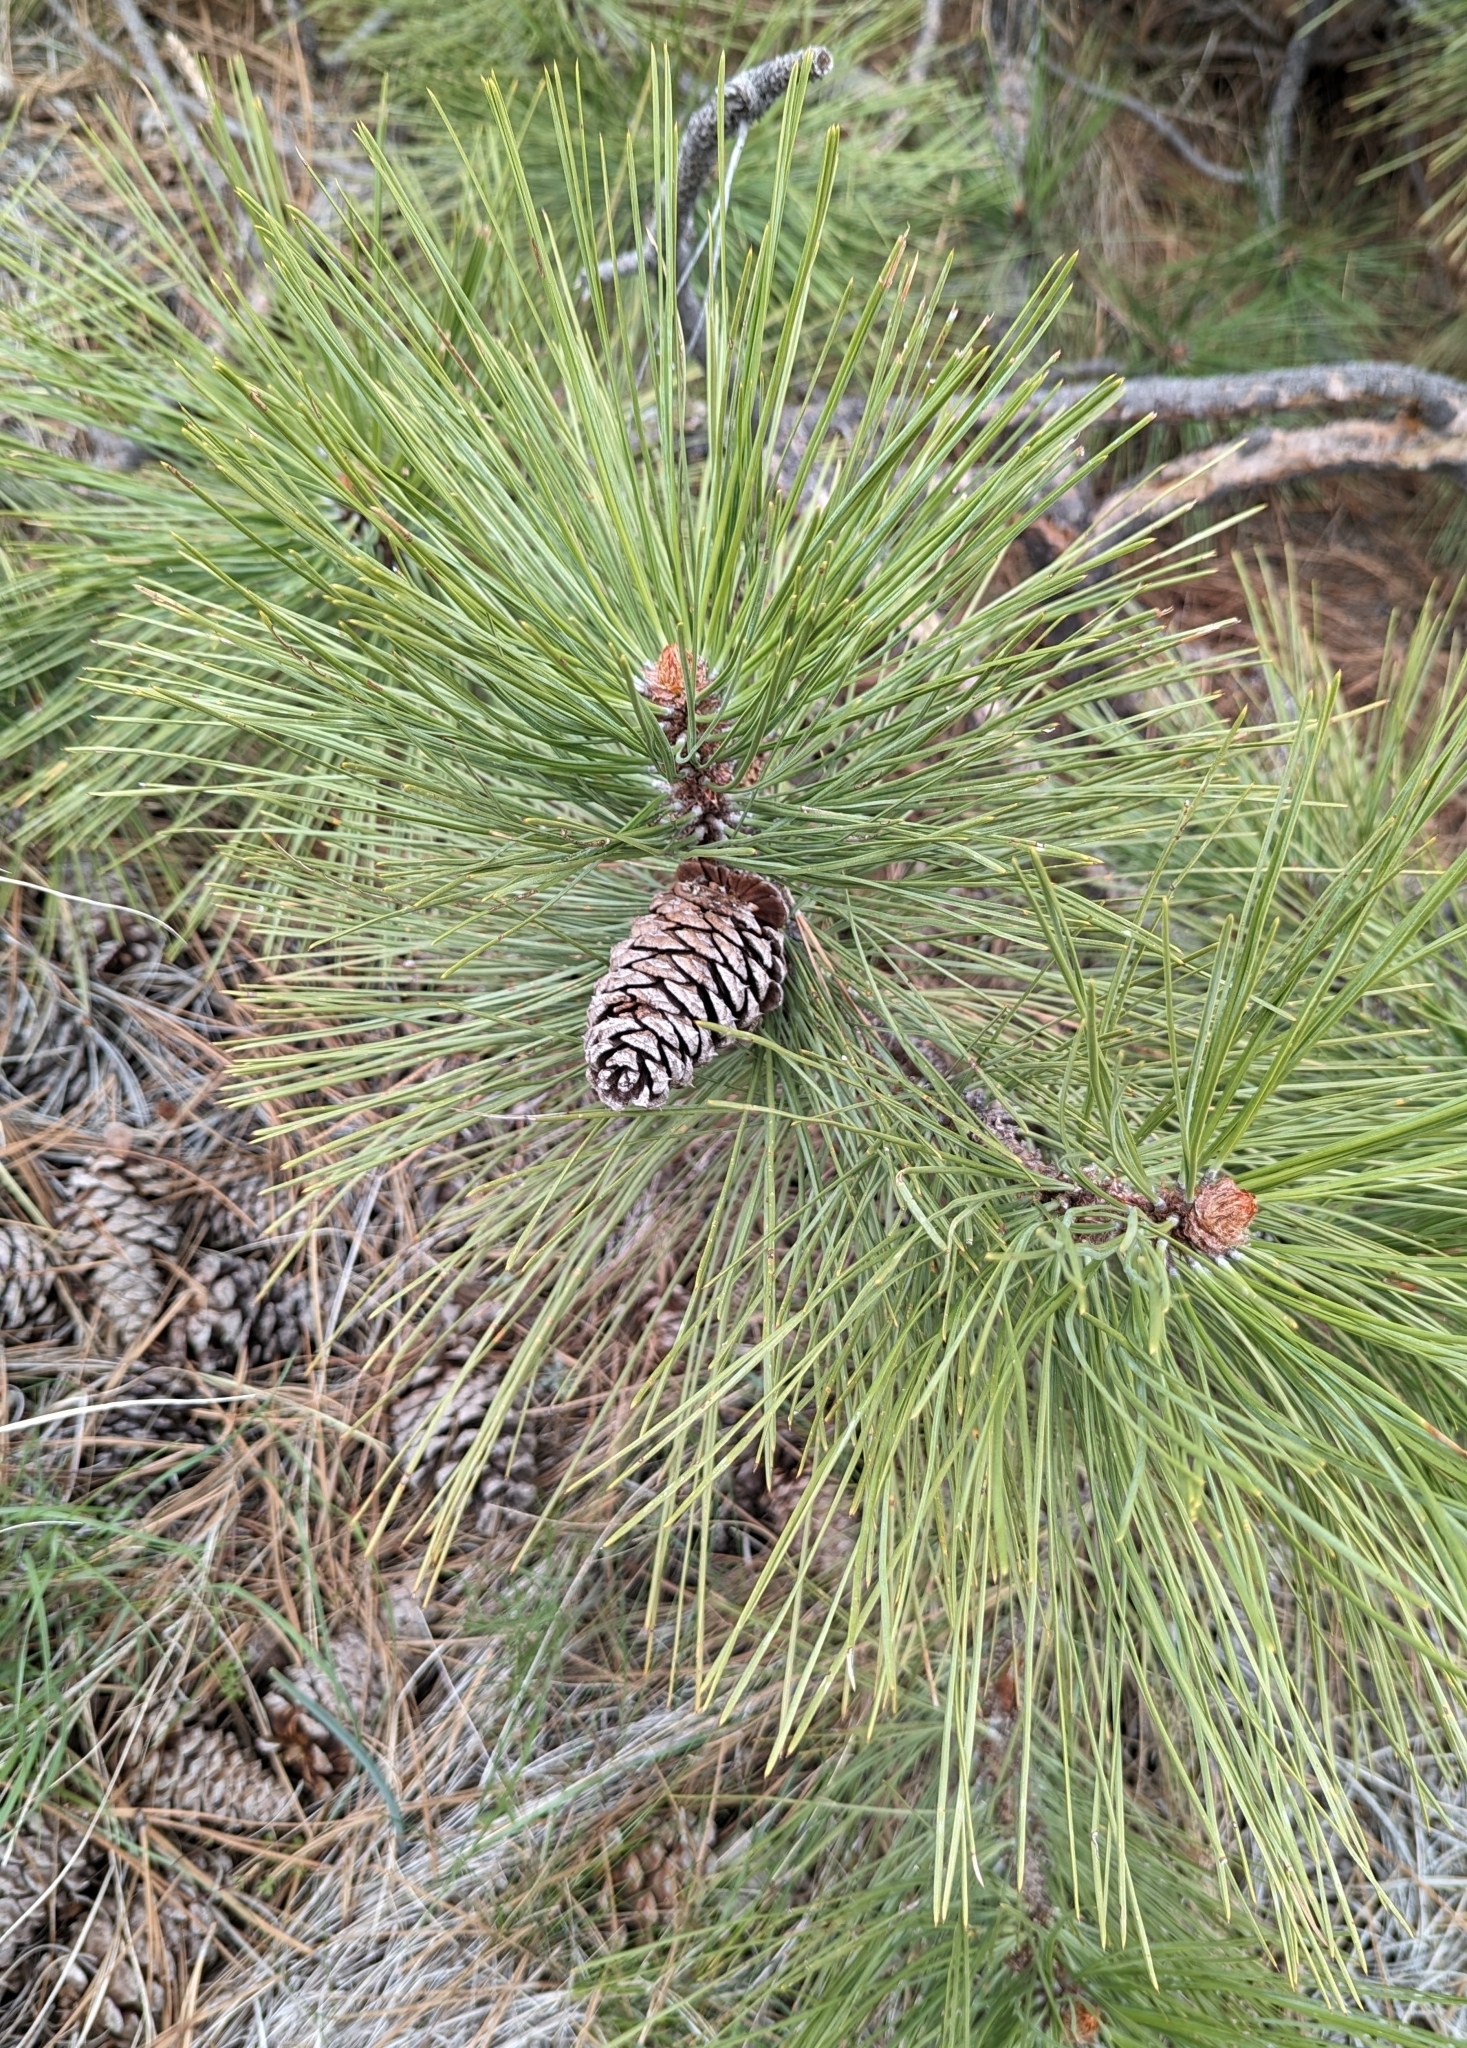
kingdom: Plantae
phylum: Tracheophyta
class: Pinopsida
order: Pinales
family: Pinaceae
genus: Pinus
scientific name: Pinus ponderosa
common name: Western yellow-pine
